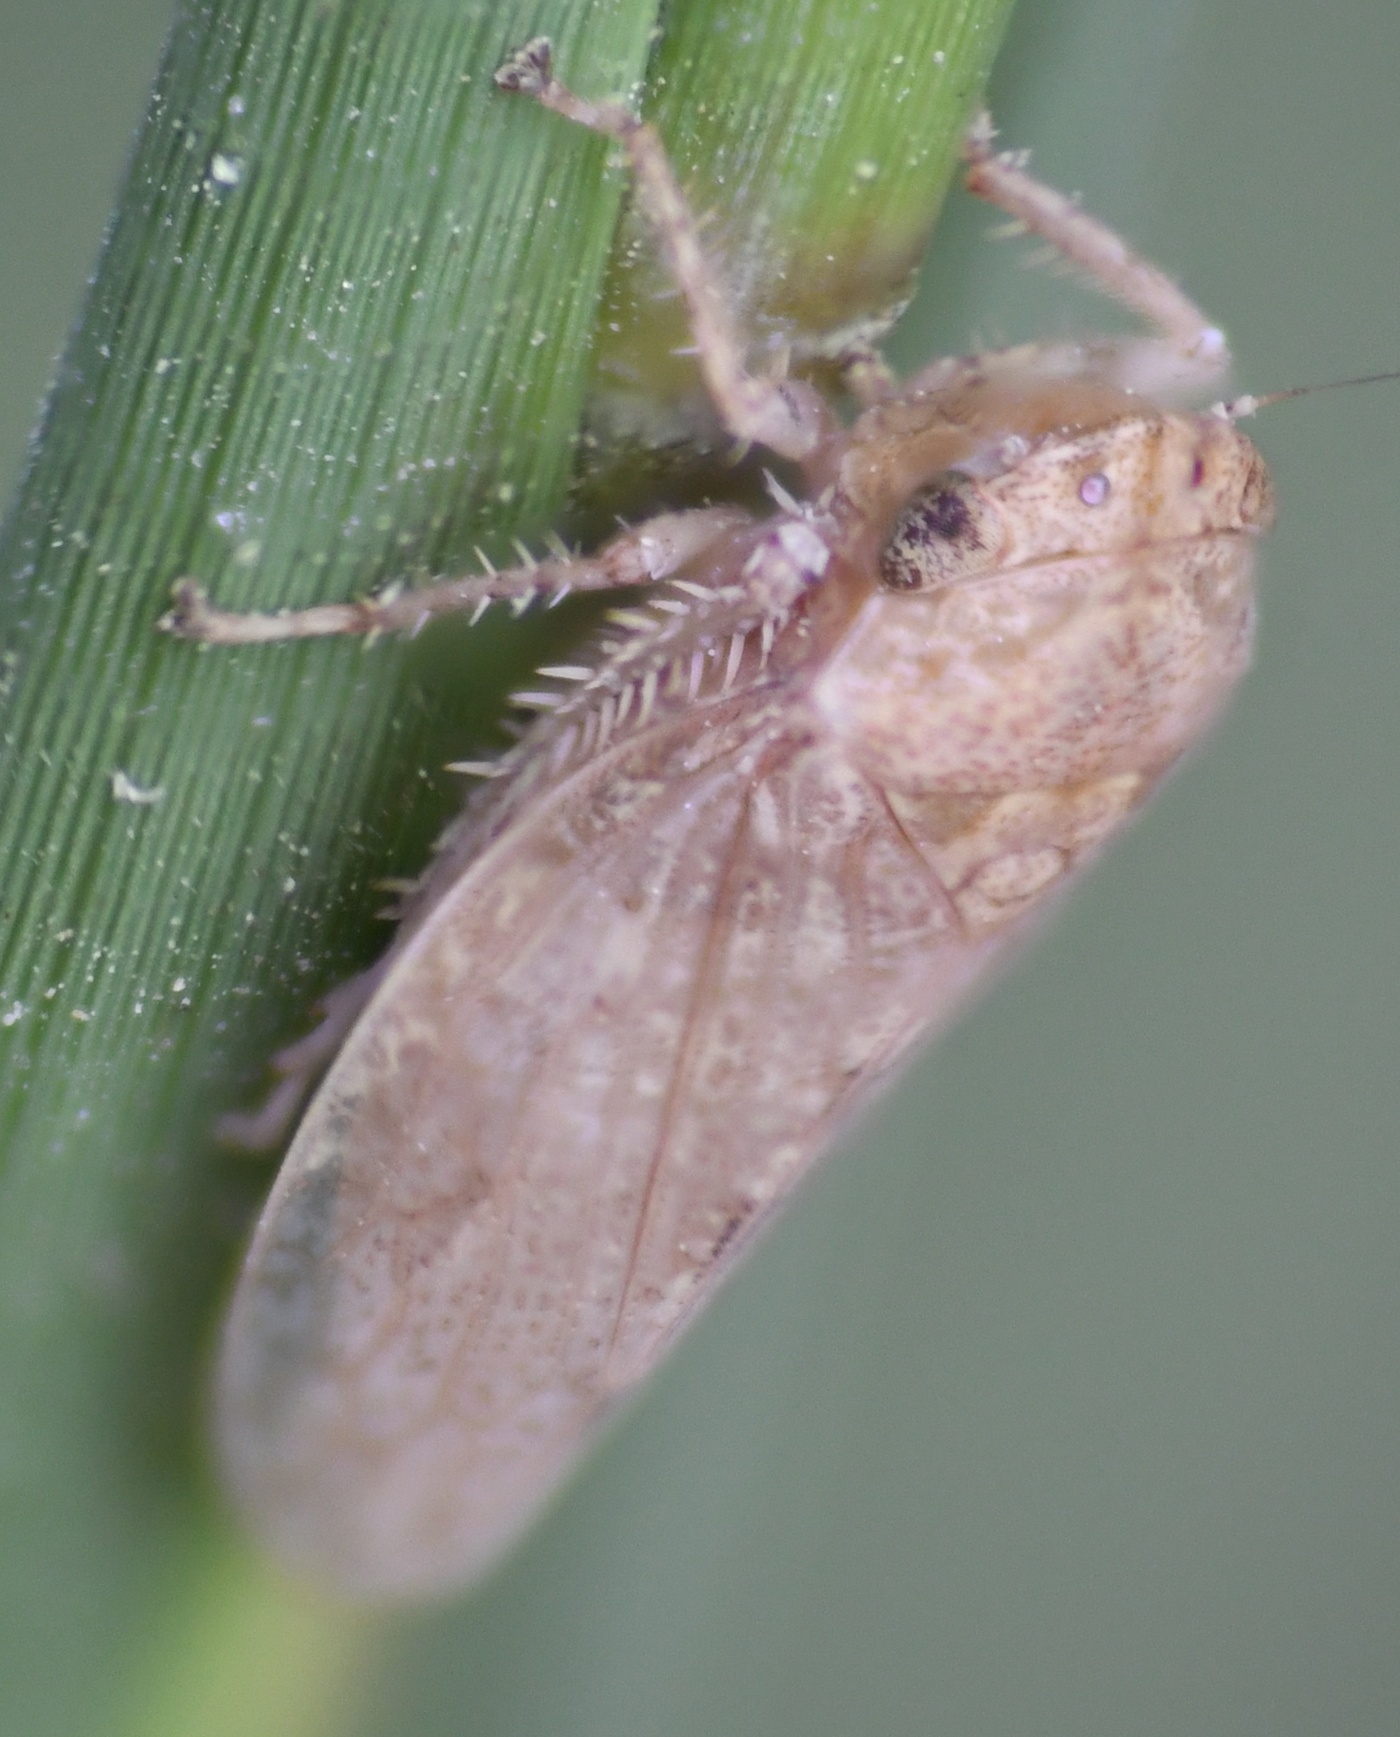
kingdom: Animalia
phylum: Arthropoda
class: Insecta
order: Hemiptera
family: Cicadellidae
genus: Curtara
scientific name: Curtara insularis
